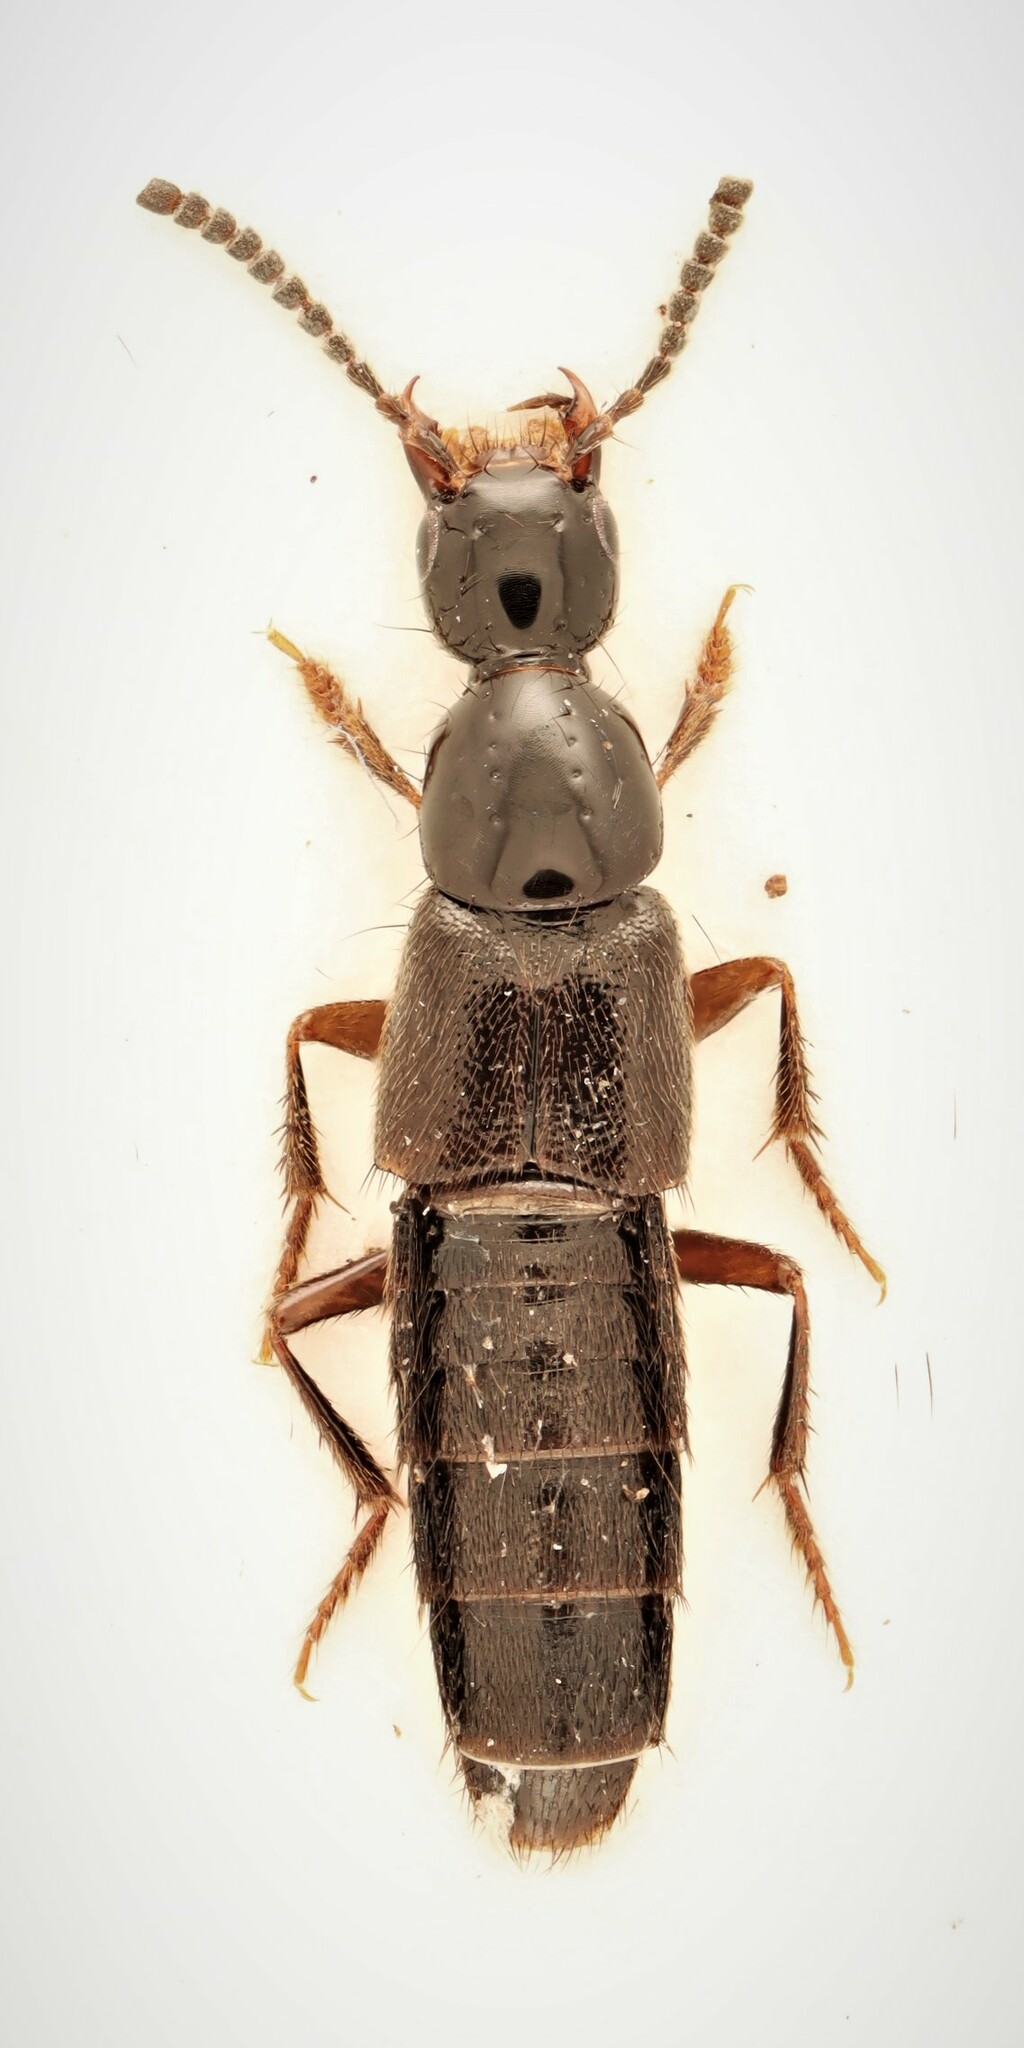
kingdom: Animalia
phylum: Arthropoda
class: Insecta
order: Coleoptera
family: Staphylinidae
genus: Philonthus
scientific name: Philonthus debilis
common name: Staph beetle
